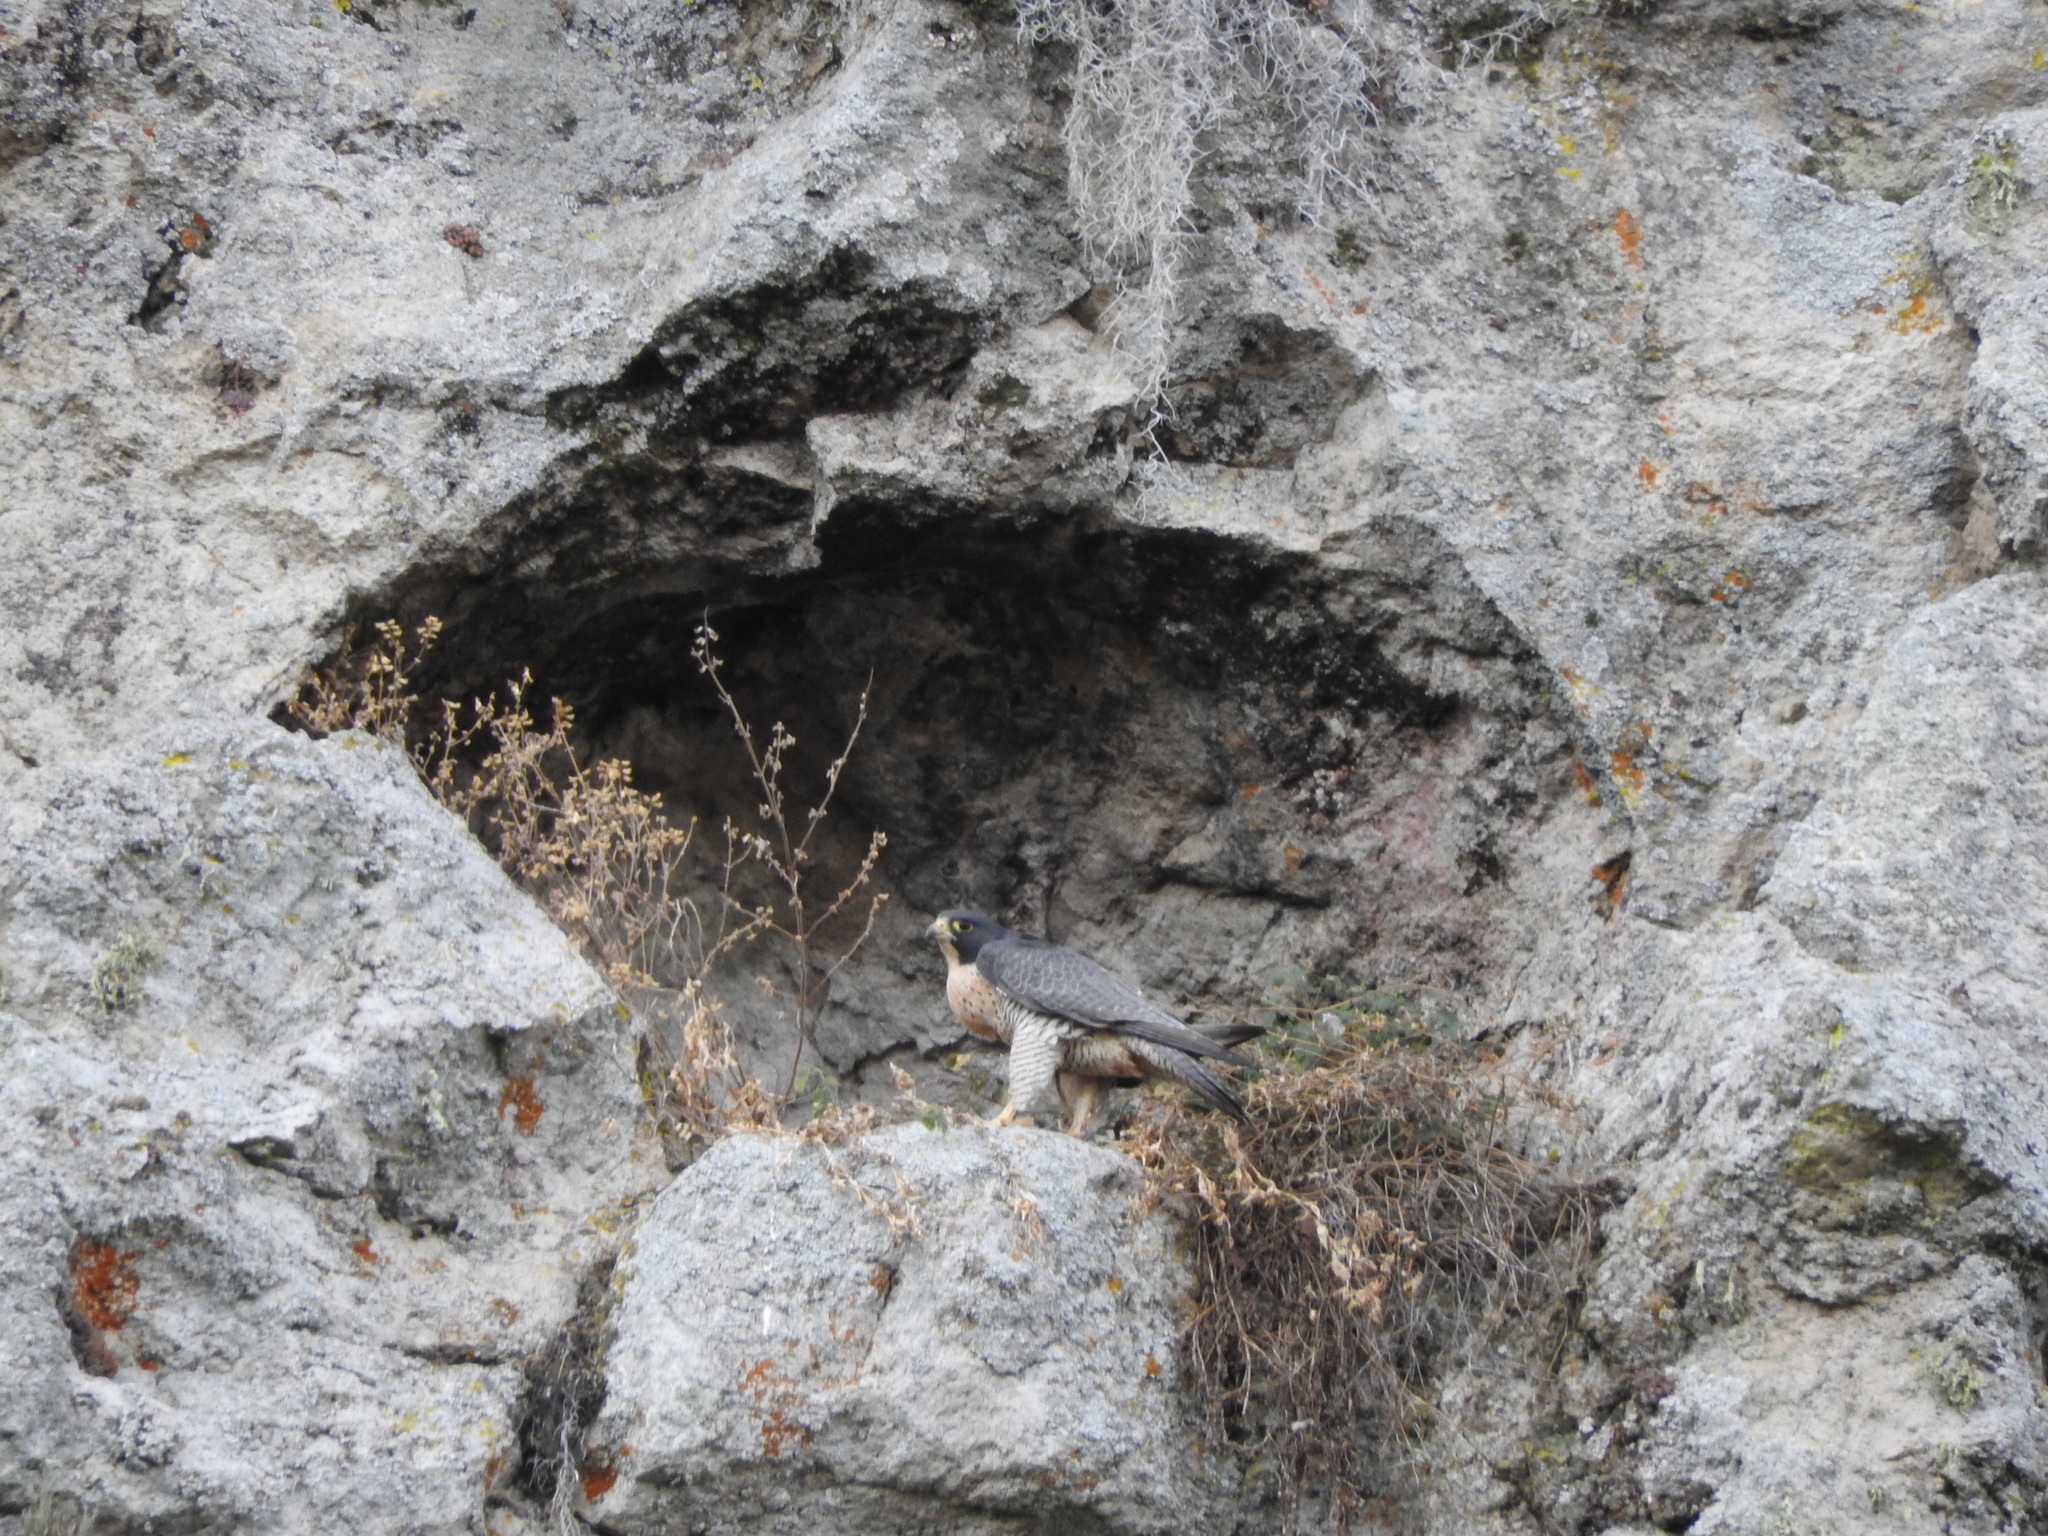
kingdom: Animalia
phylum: Chordata
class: Aves
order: Falconiformes
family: Falconidae
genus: Falco
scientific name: Falco peregrinus
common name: Peregrine falcon
